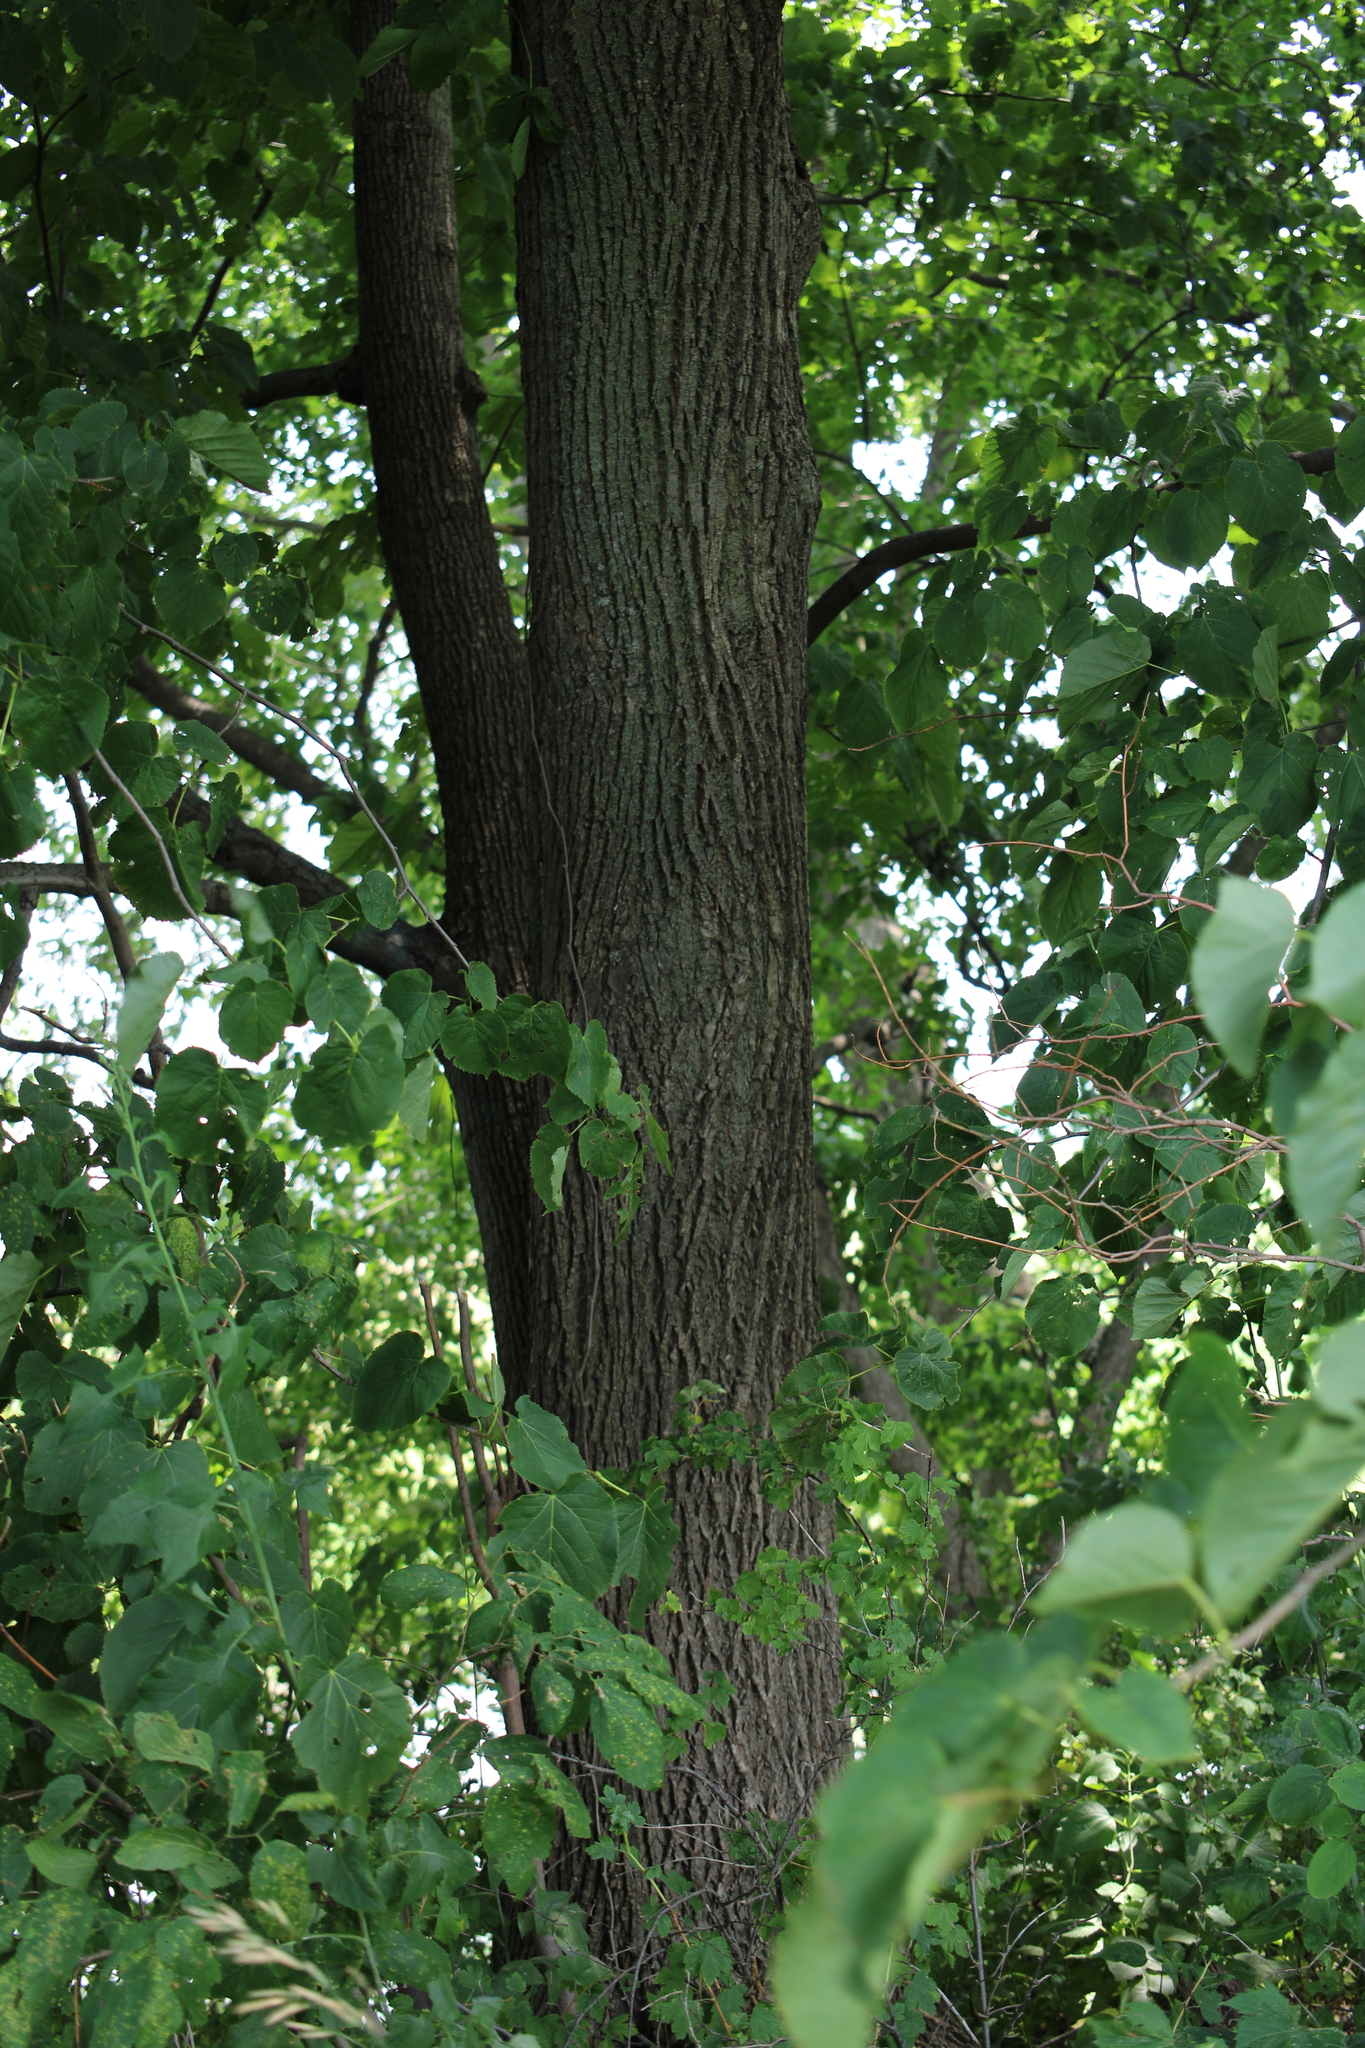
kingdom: Plantae
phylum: Tracheophyta
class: Magnoliopsida
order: Malvales
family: Malvaceae
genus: Tilia
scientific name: Tilia americana
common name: Basswood
